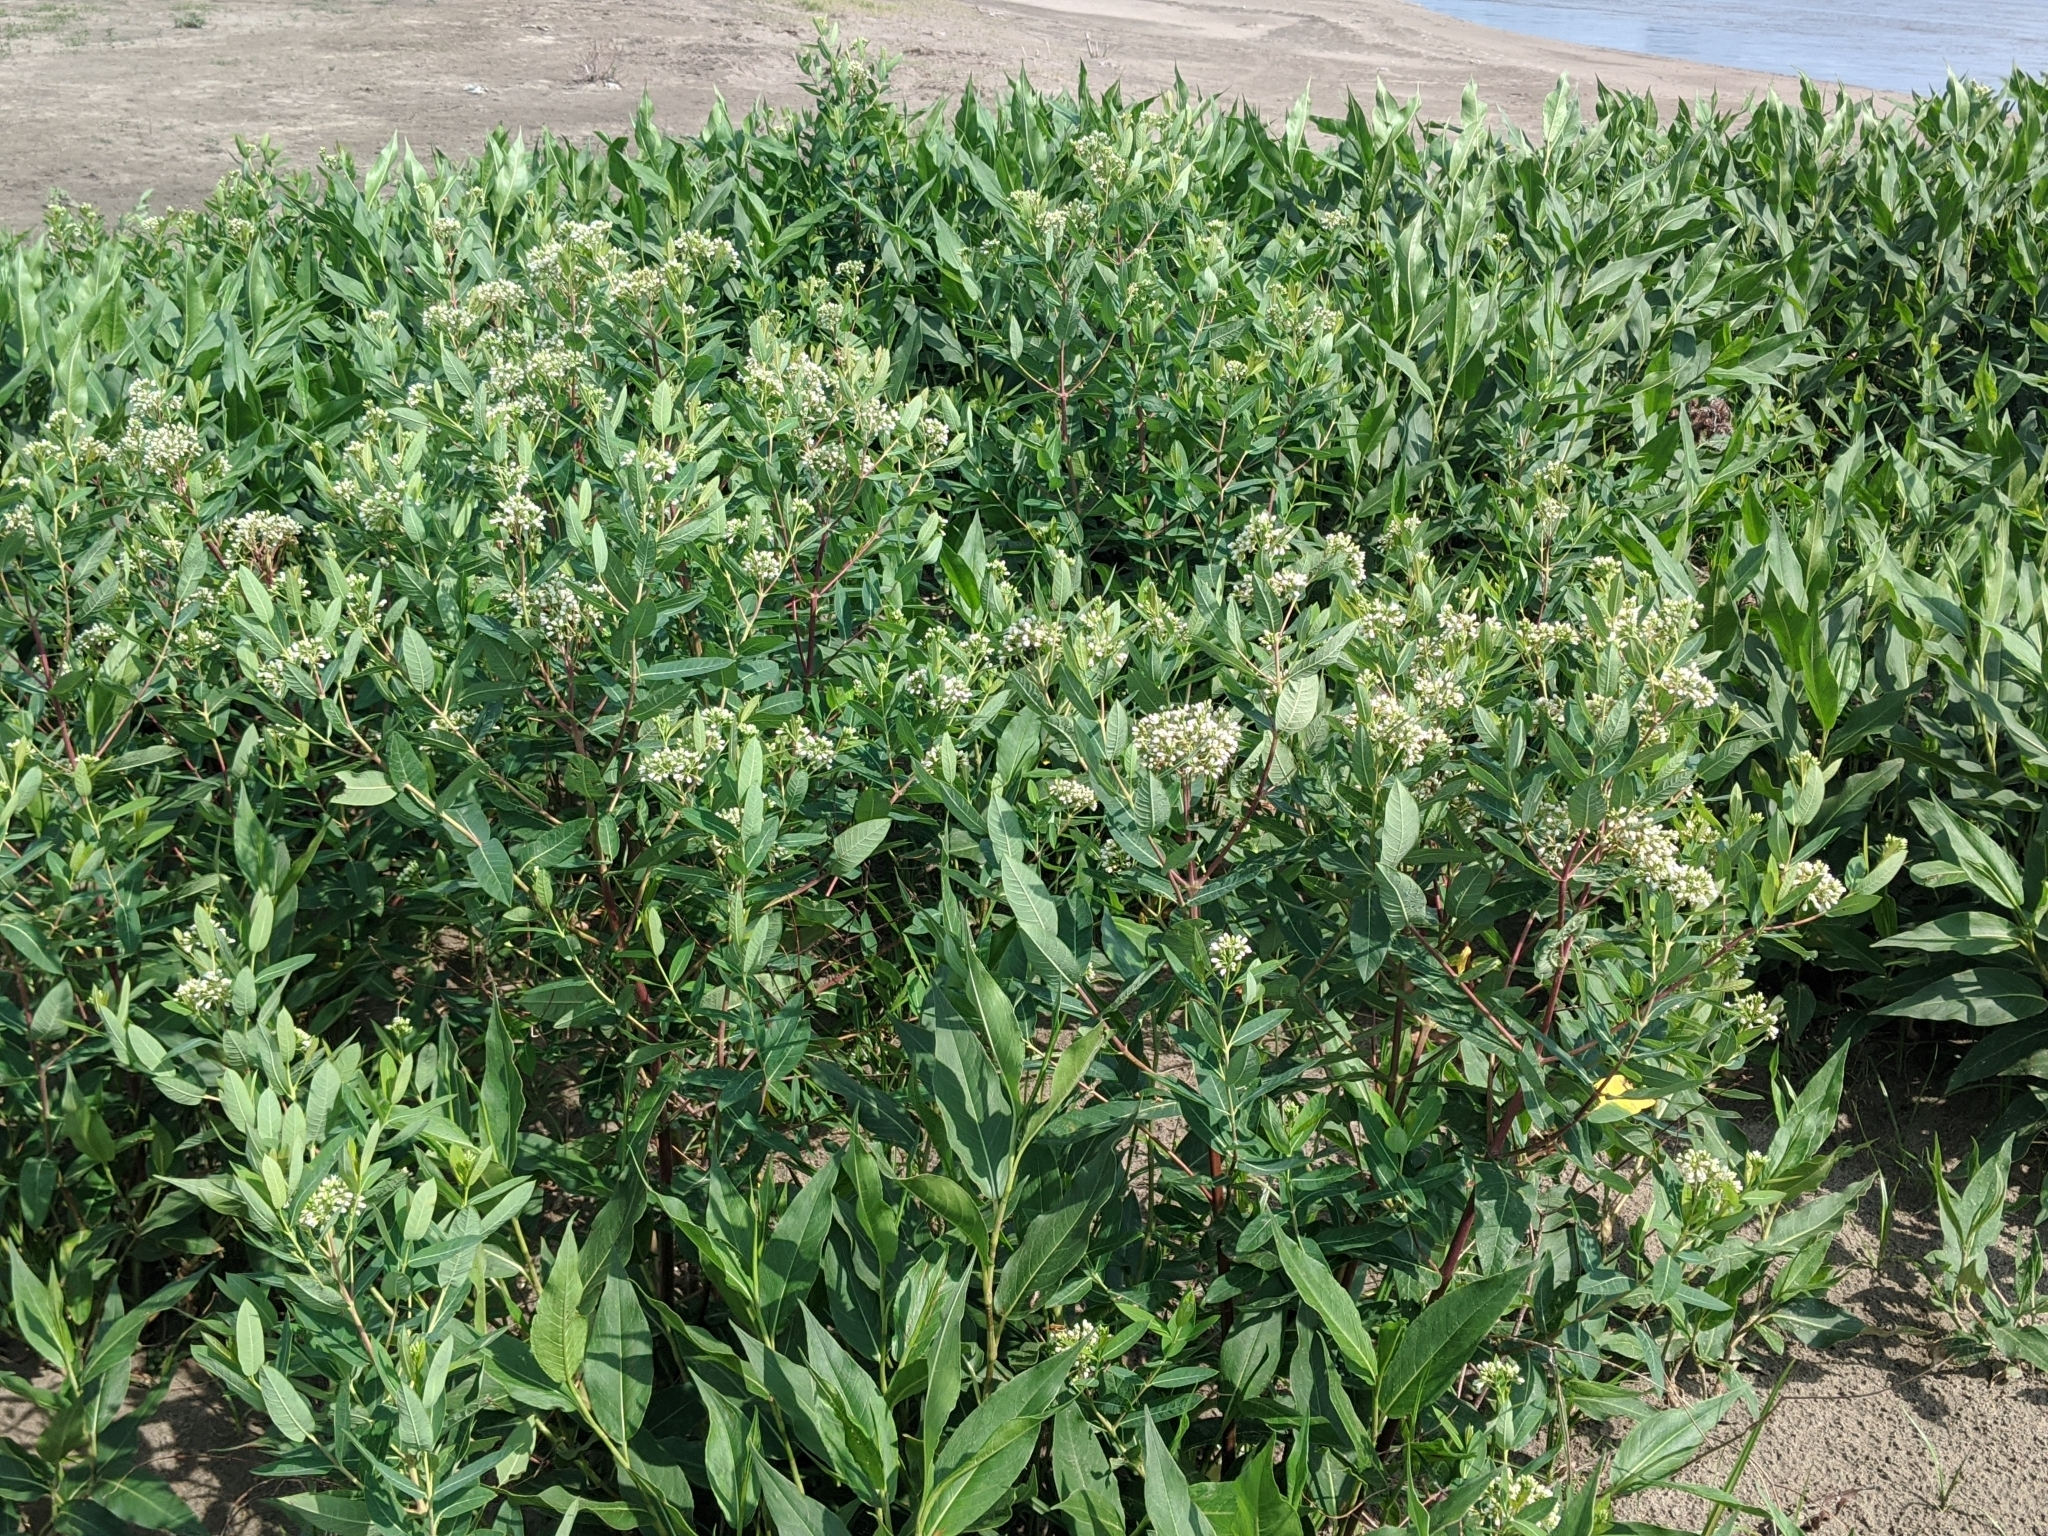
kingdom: Plantae
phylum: Tracheophyta
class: Magnoliopsida
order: Gentianales
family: Apocynaceae
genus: Apocynum
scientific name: Apocynum cannabinum
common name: Hemp dogbane
